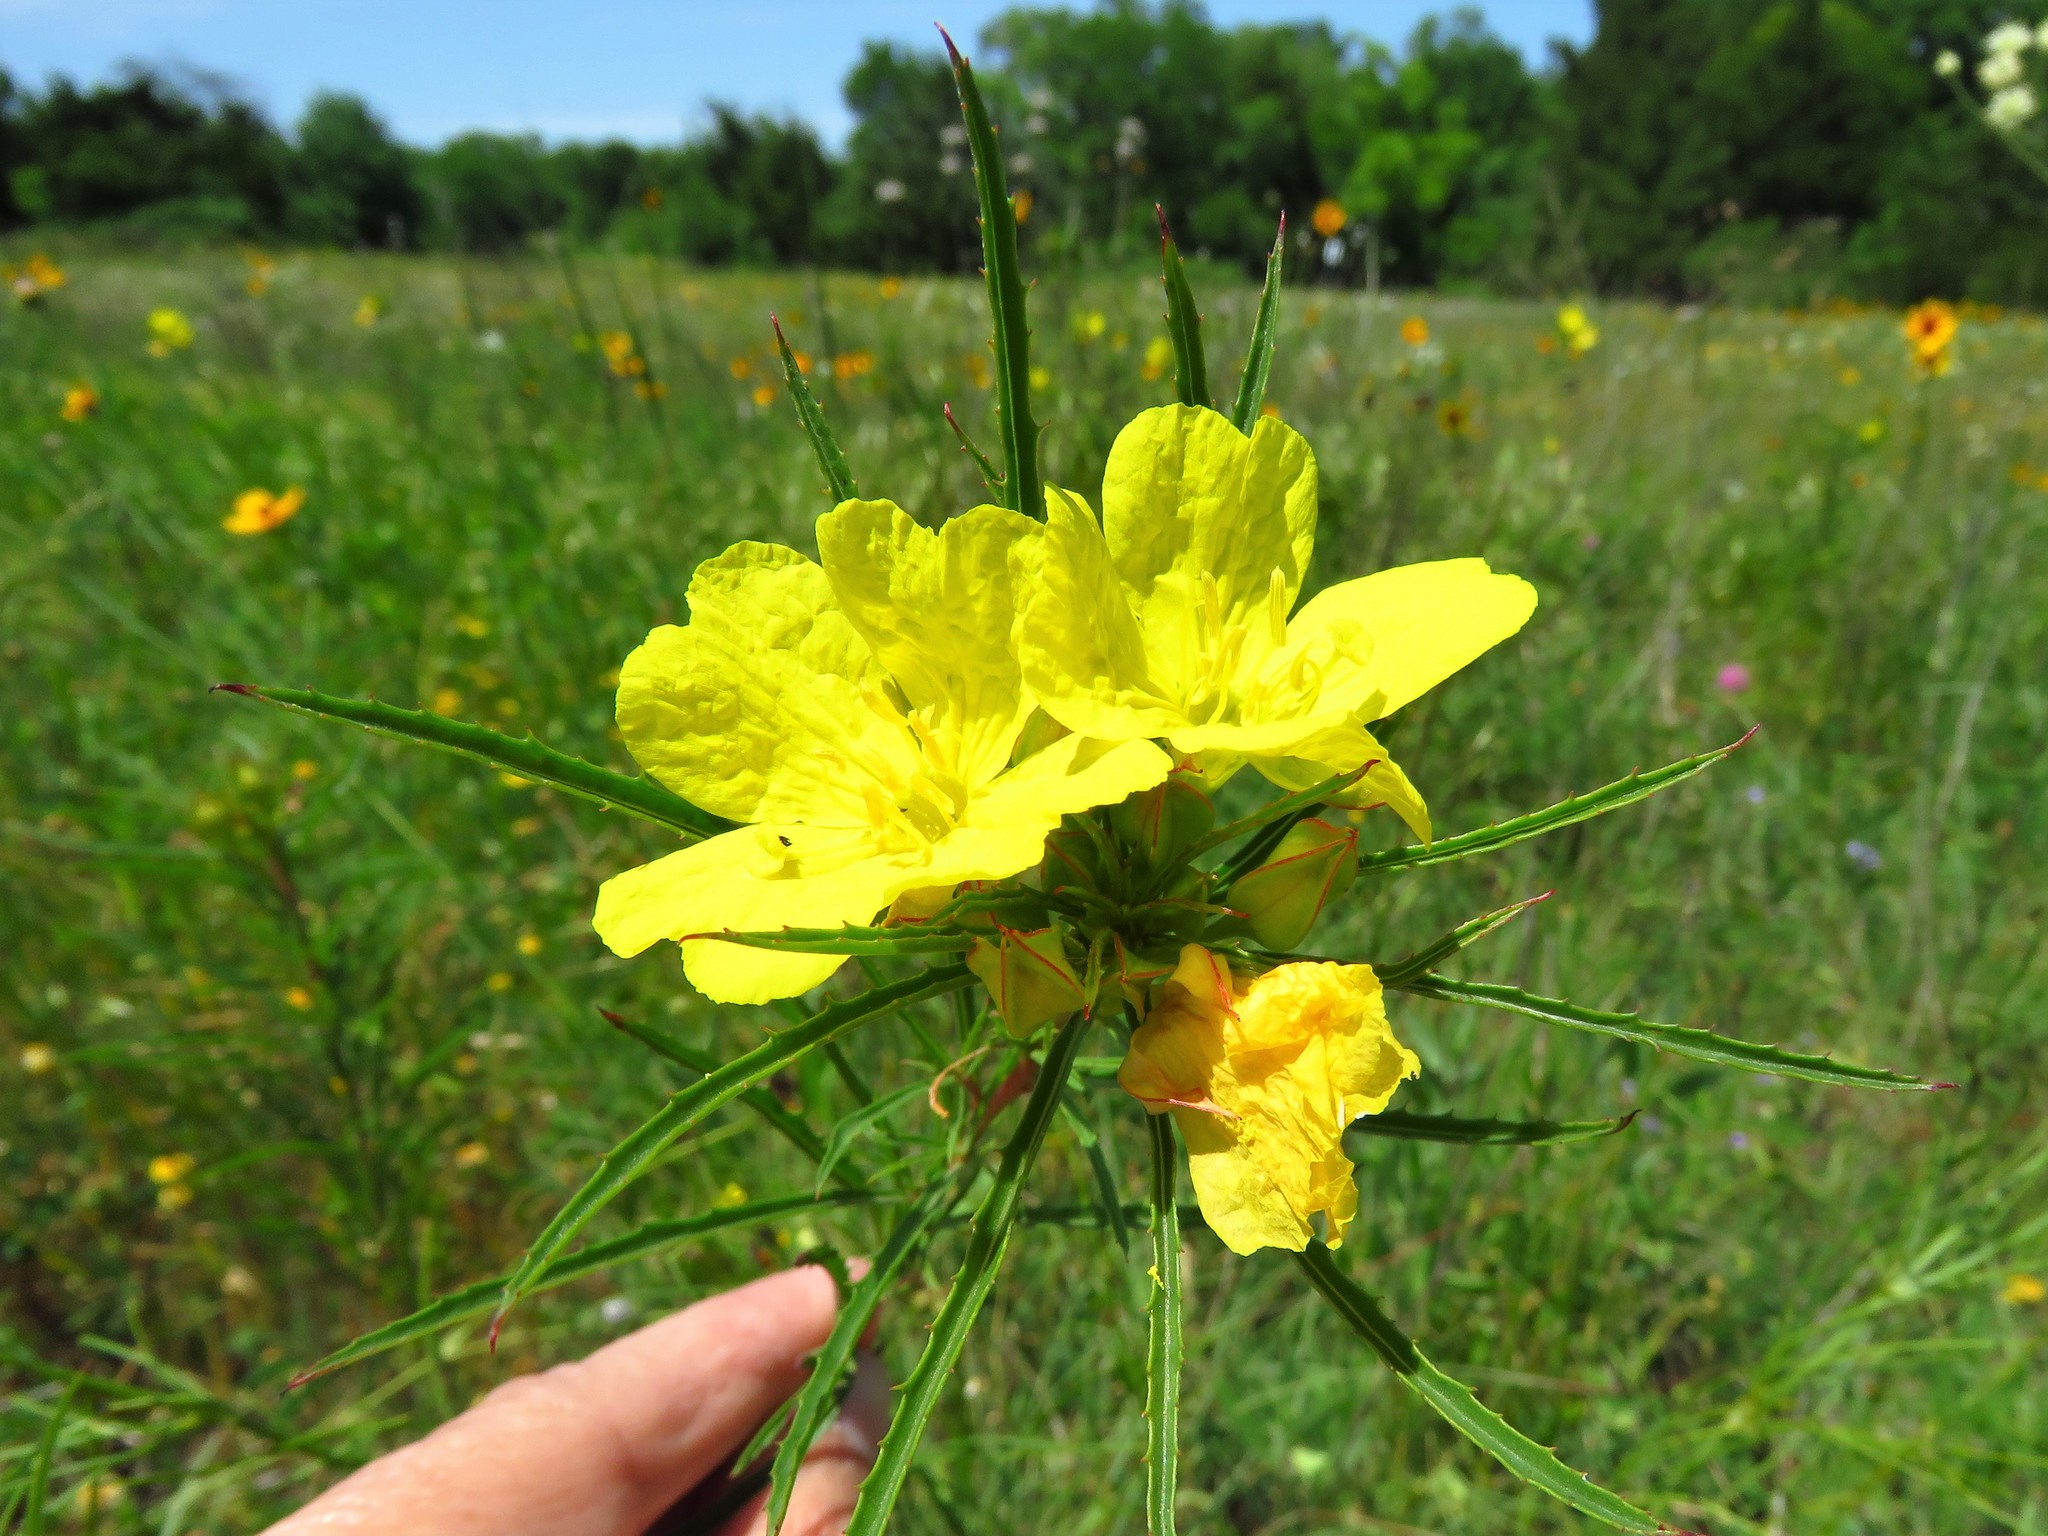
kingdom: Plantae
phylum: Tracheophyta
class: Magnoliopsida
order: Myrtales
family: Onagraceae
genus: Oenothera
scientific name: Oenothera
